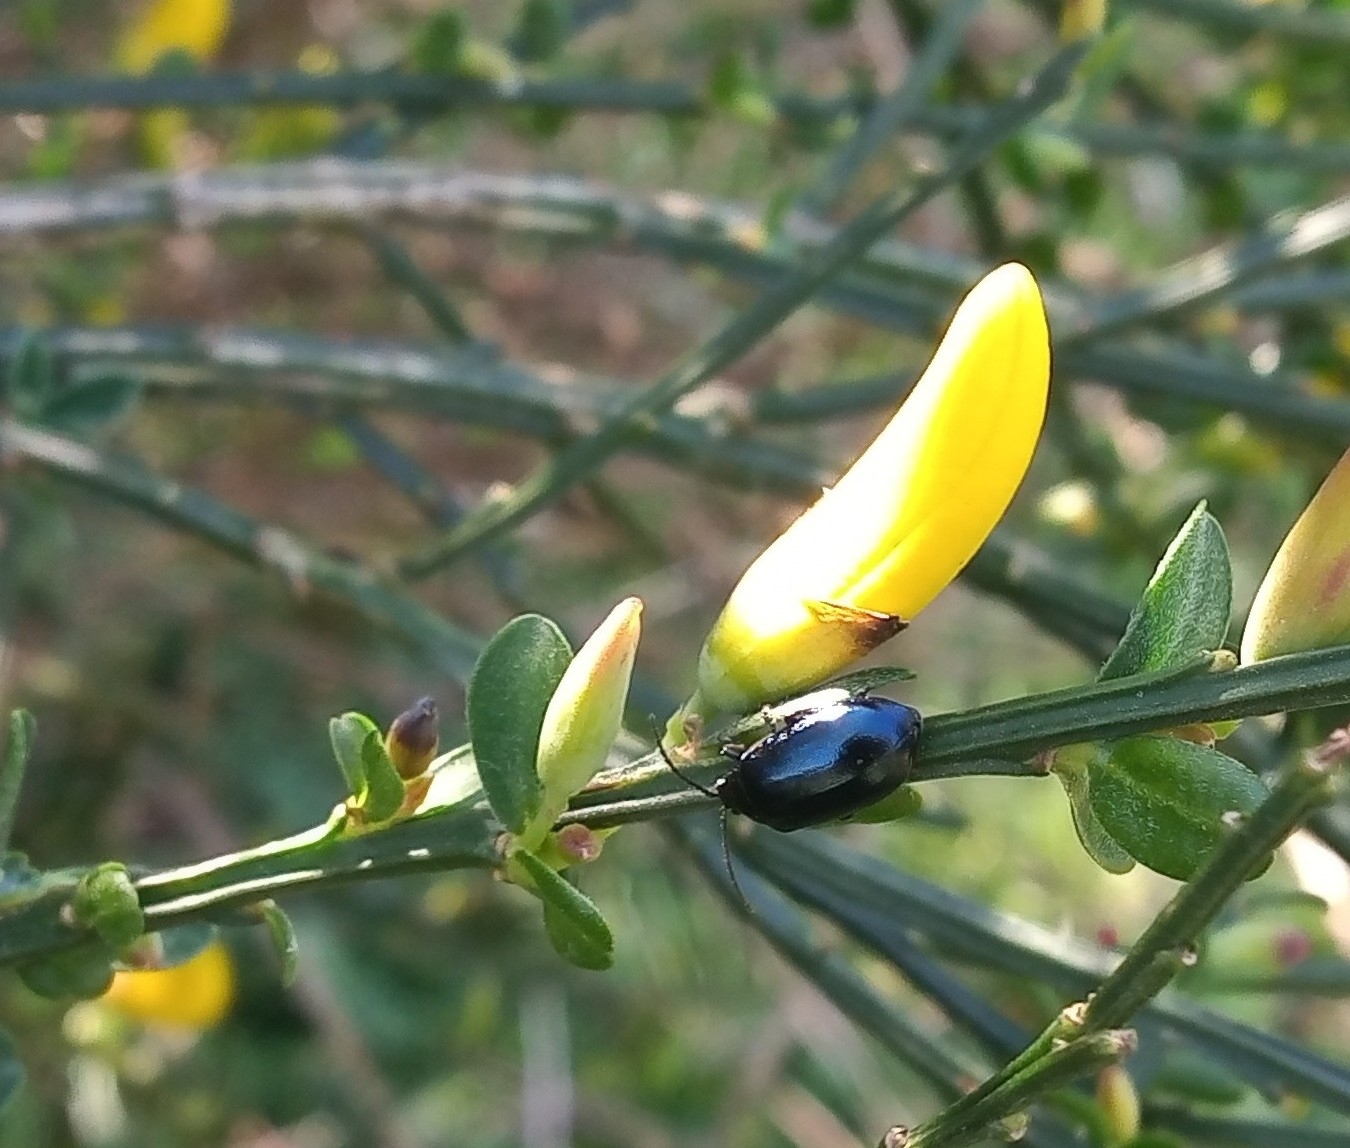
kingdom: Animalia
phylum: Arthropoda
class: Insecta
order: Coleoptera
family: Chrysomelidae
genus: Agelastica
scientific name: Agelastica alni
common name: Alder leaf beetle
